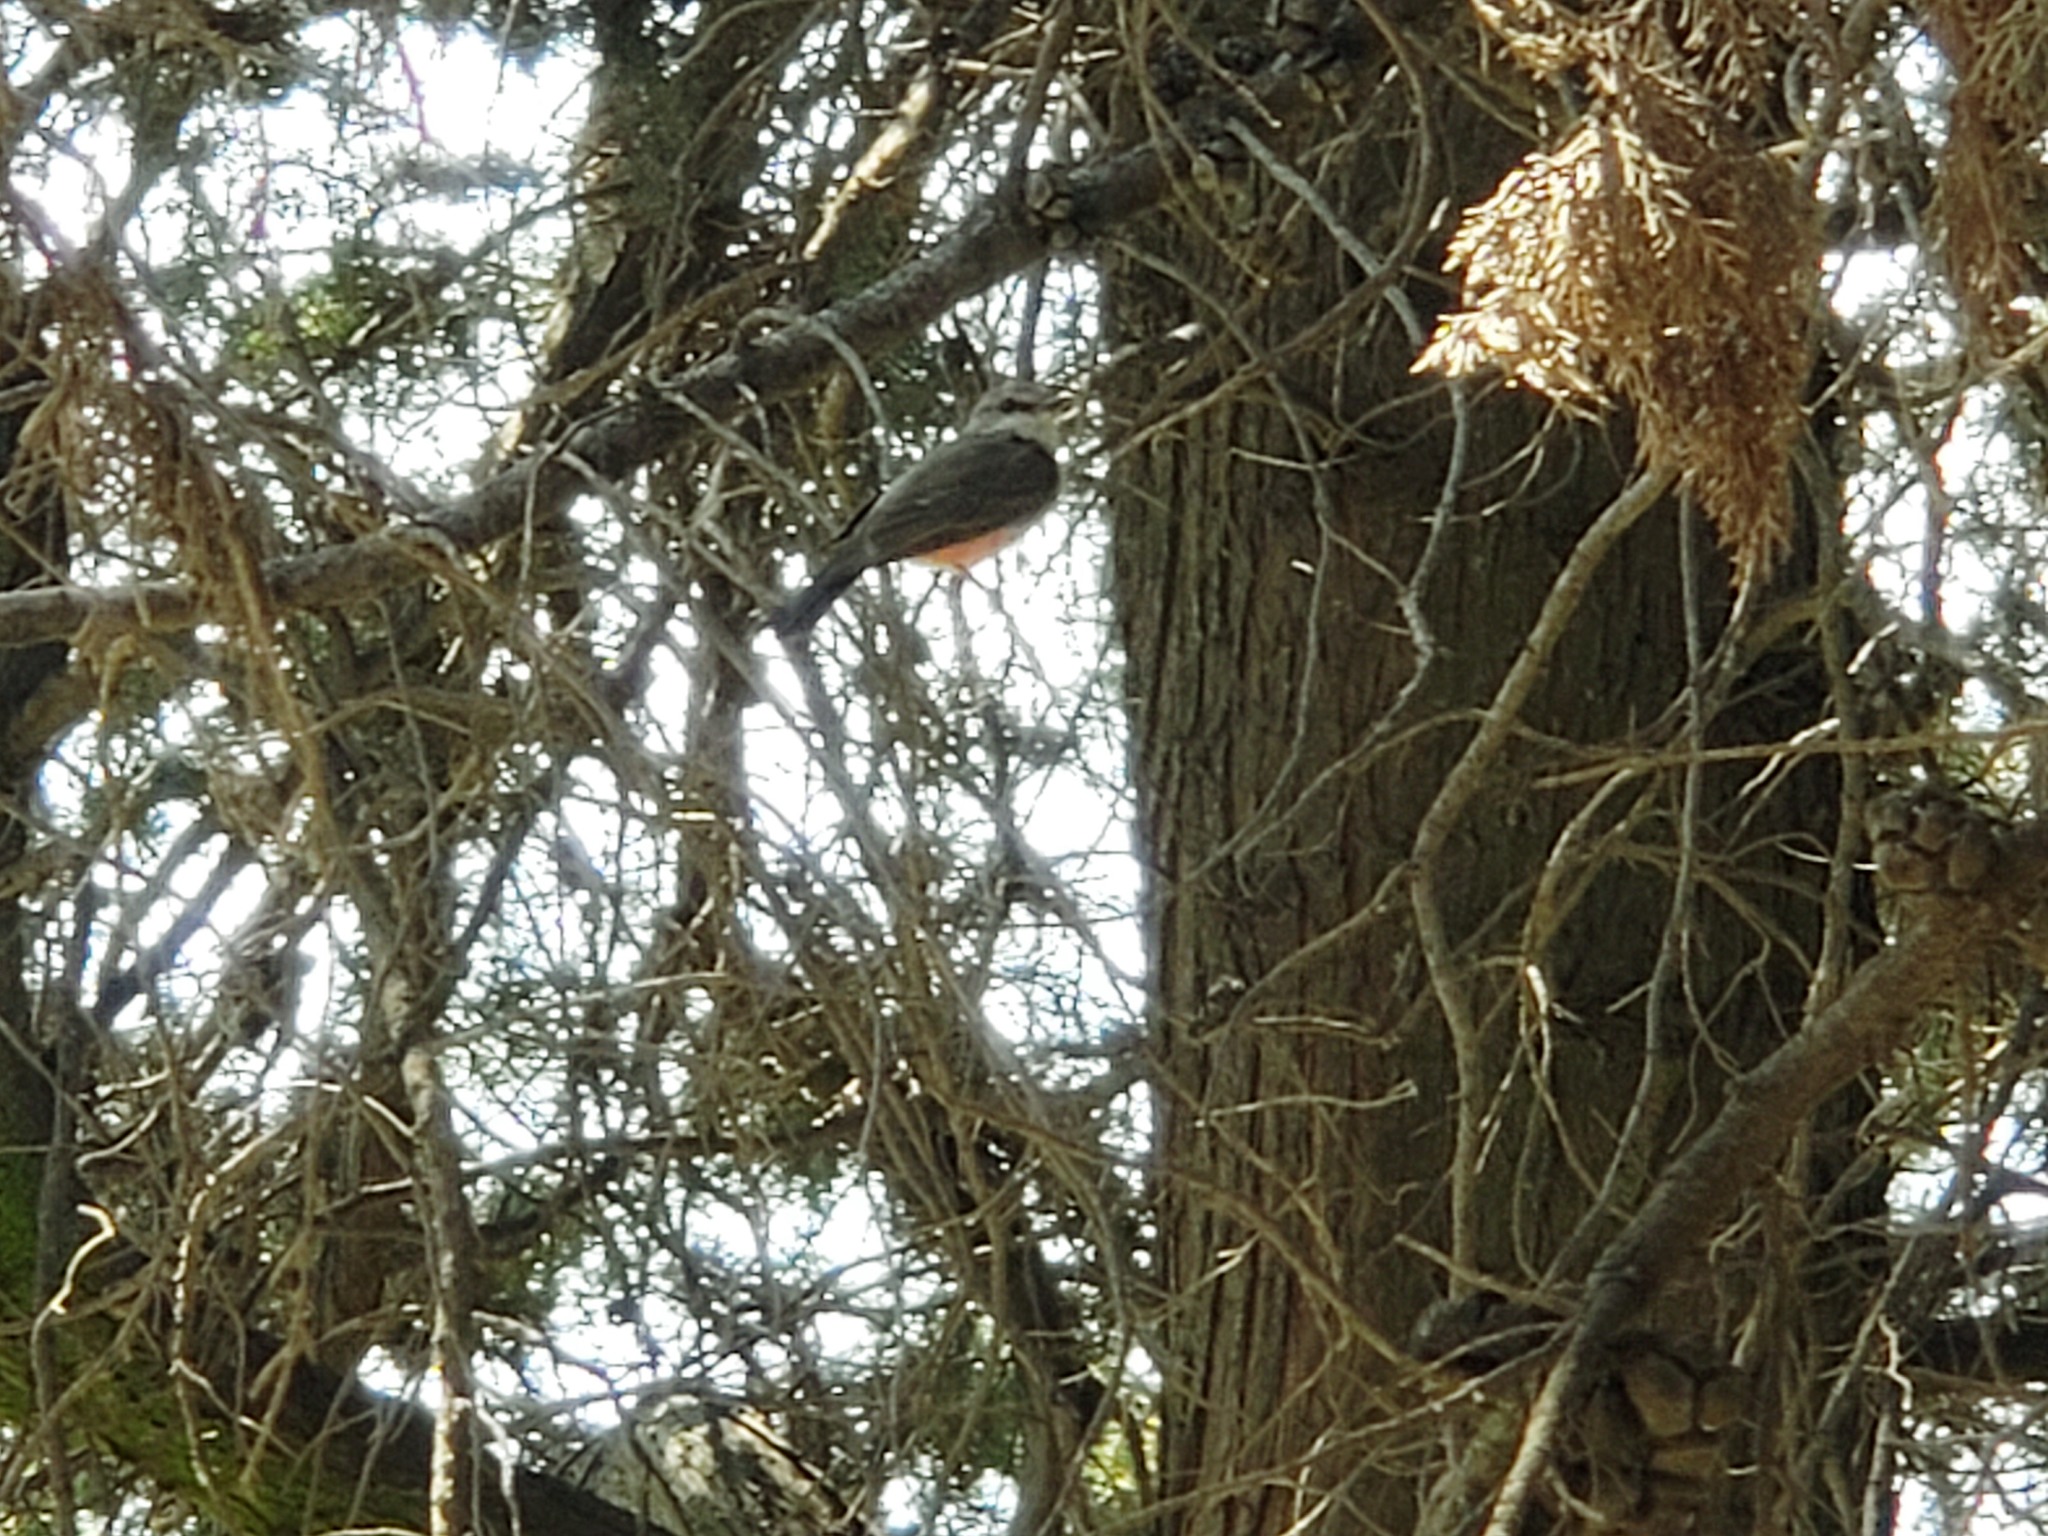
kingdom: Animalia
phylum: Chordata
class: Aves
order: Passeriformes
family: Tyrannidae
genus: Pyrocephalus
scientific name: Pyrocephalus rubinus
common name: Vermilion flycatcher
